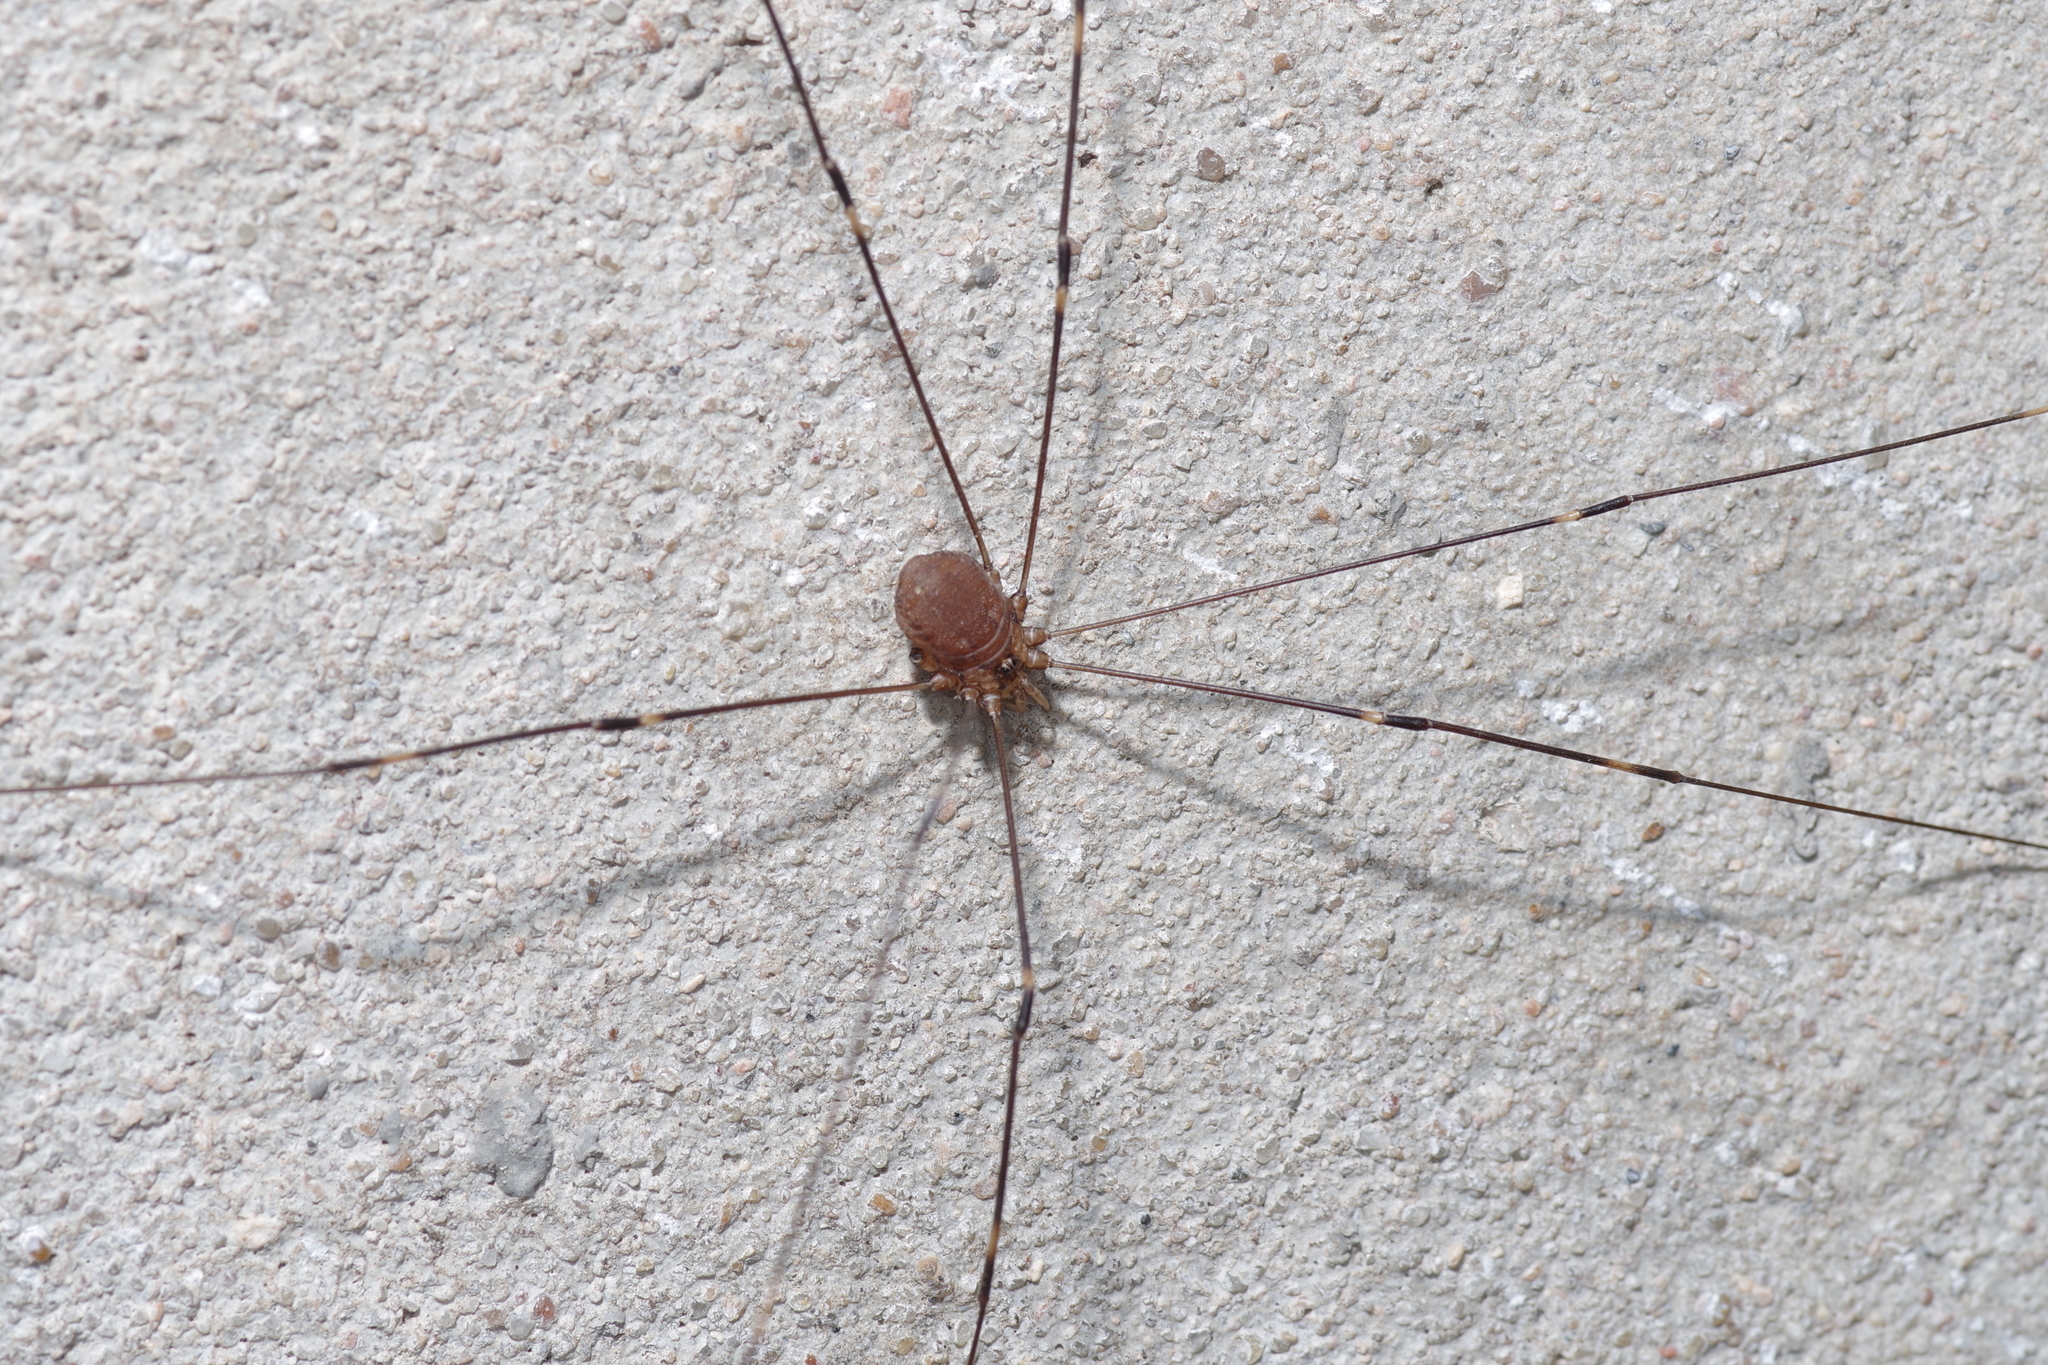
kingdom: Animalia
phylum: Arthropoda
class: Arachnida
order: Opiliones
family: Sclerosomatidae
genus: Leiobunum
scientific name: Leiobunum townsendi
